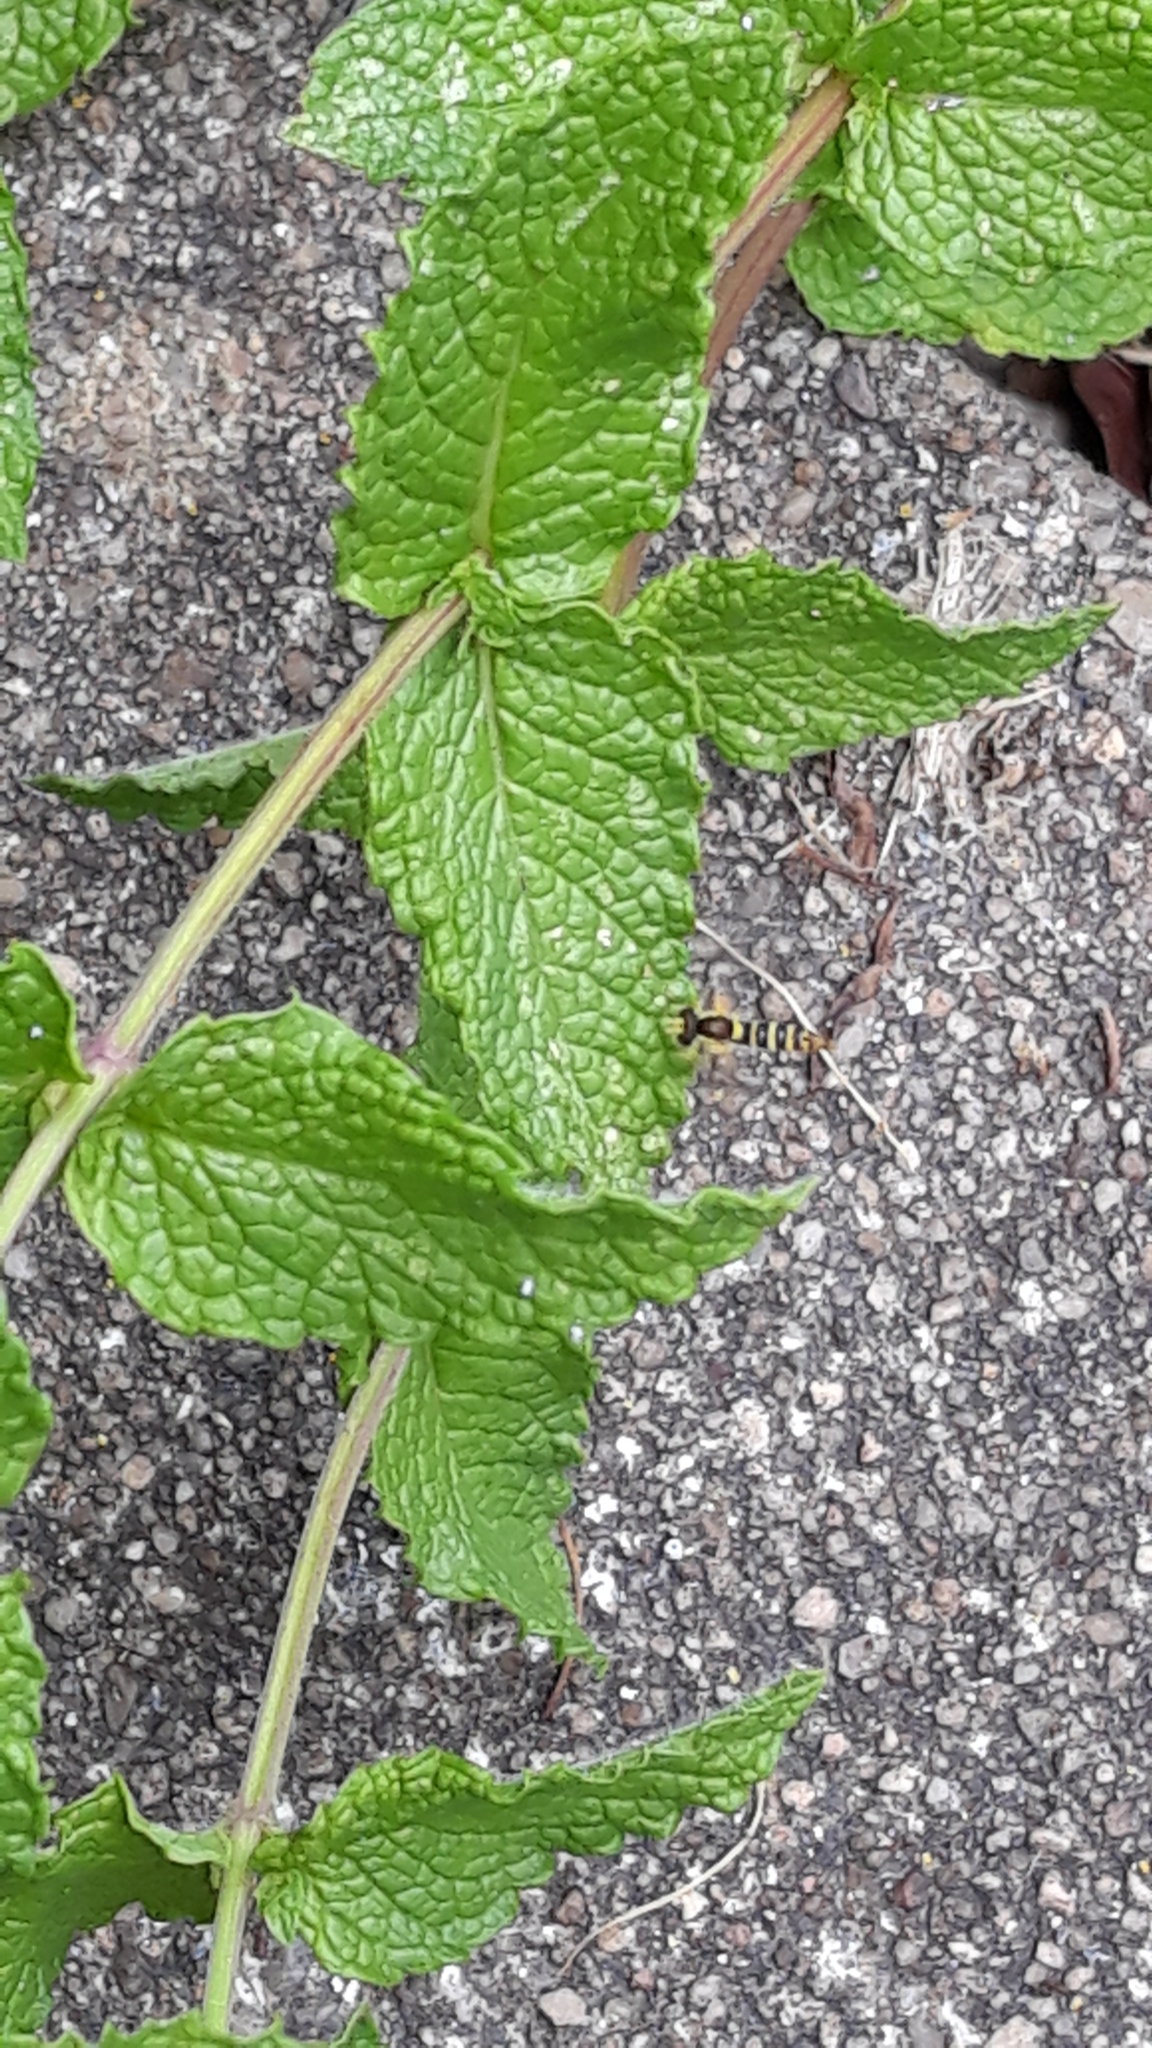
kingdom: Animalia
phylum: Arthropoda
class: Insecta
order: Diptera
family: Syrphidae
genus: Sphaerophoria
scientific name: Sphaerophoria
